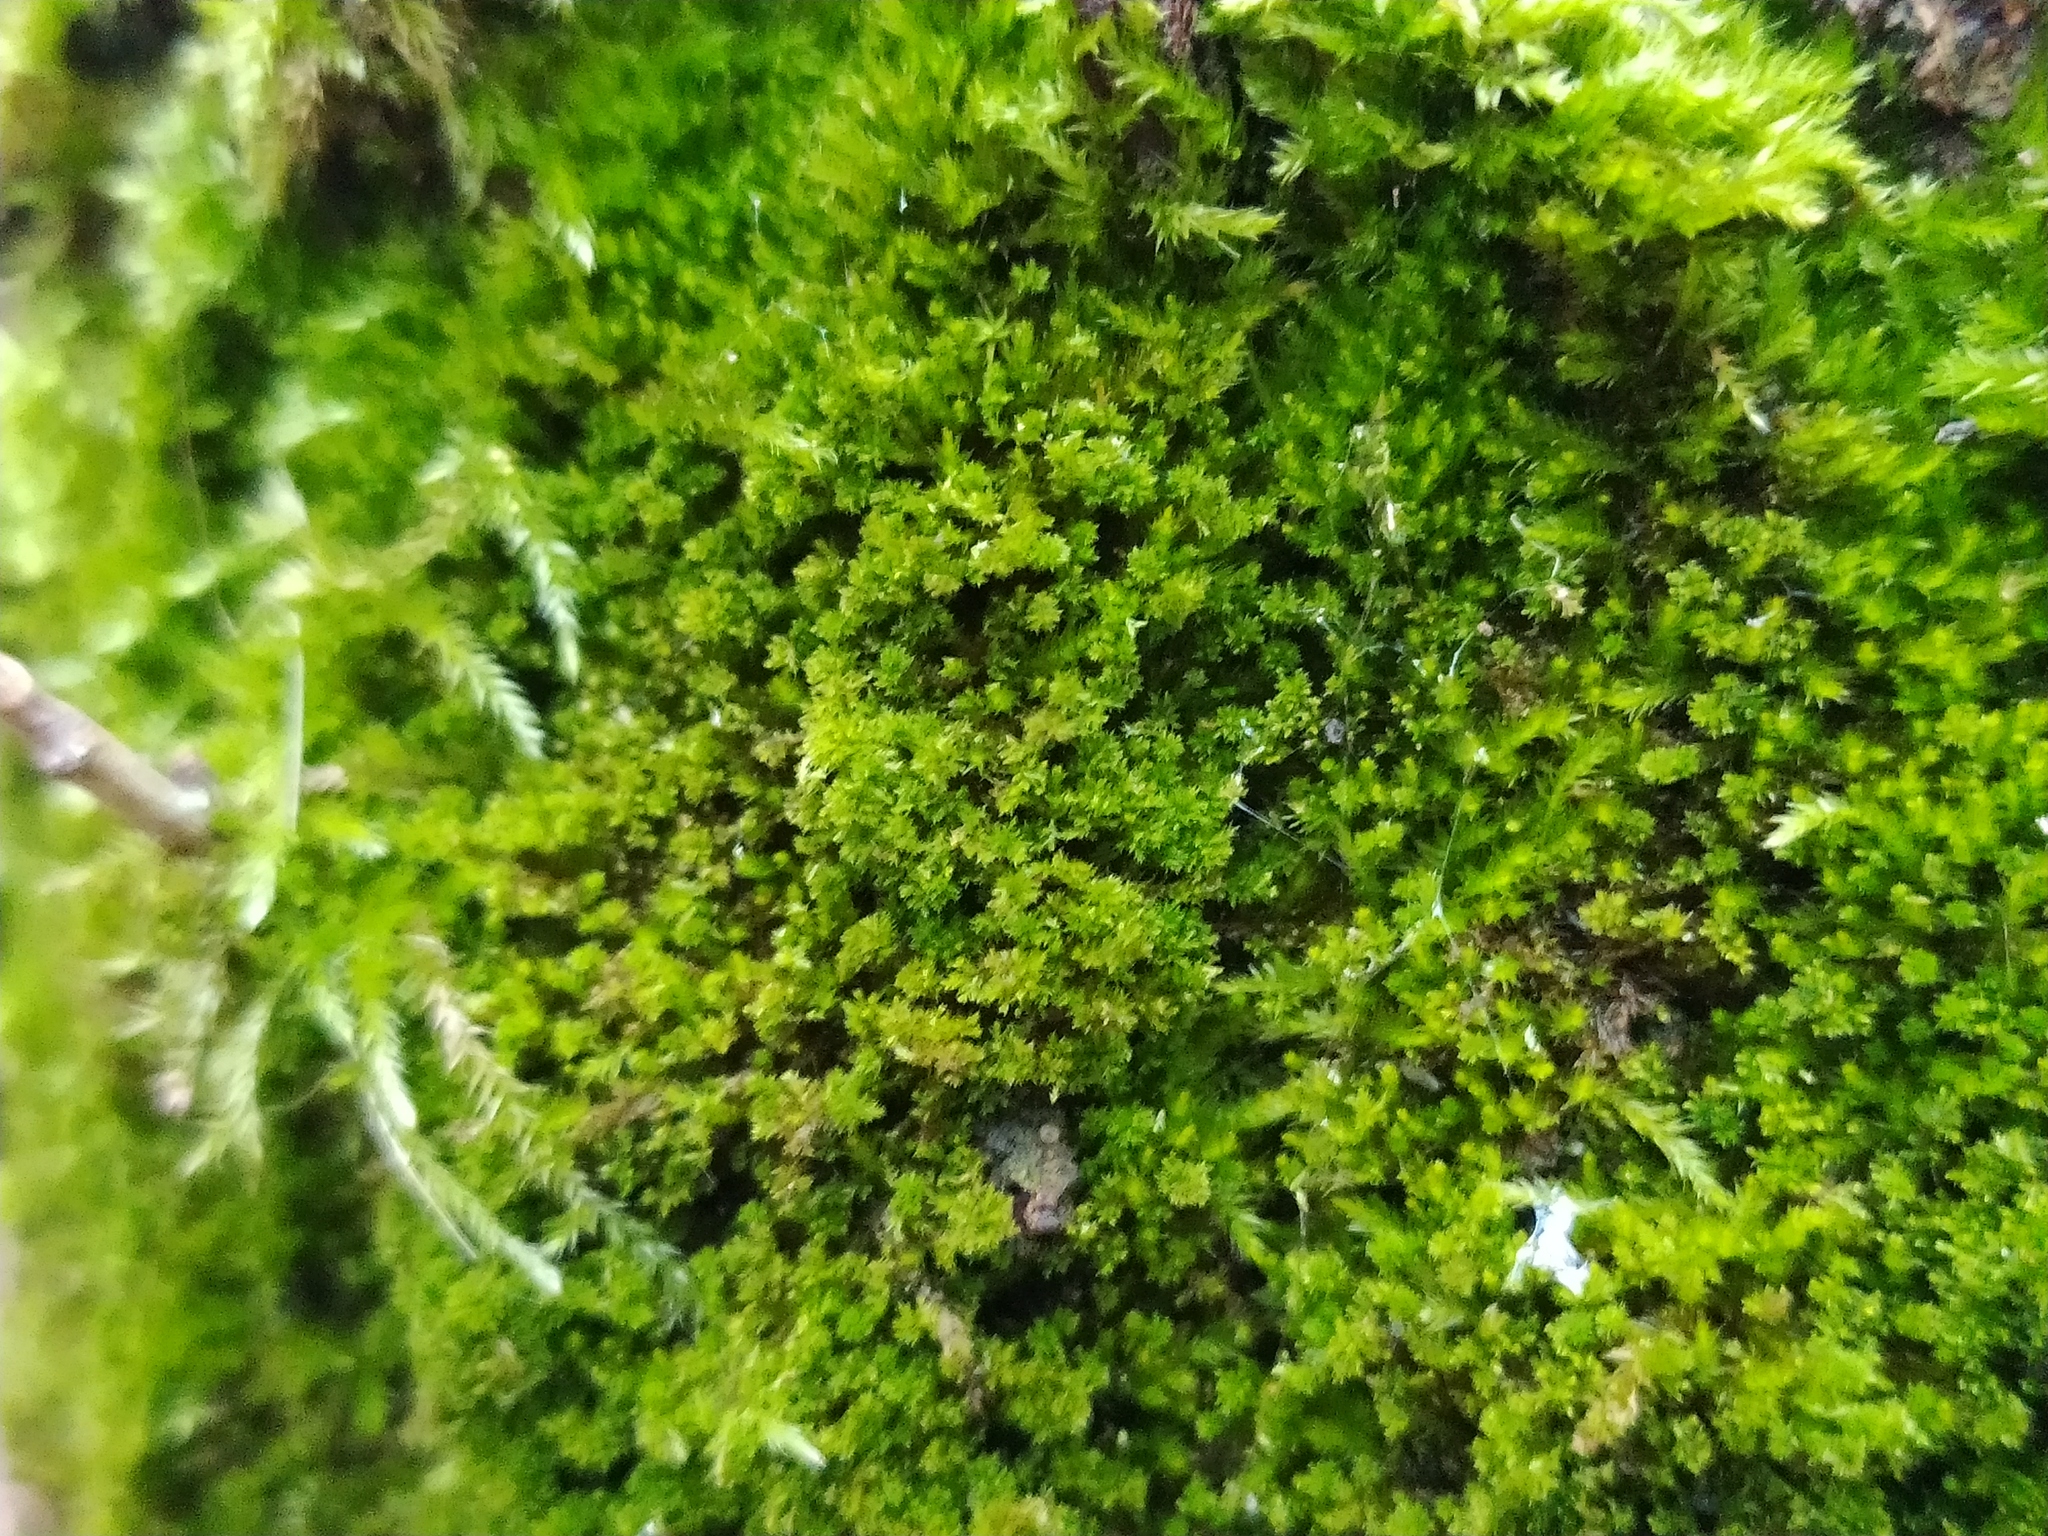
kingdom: Plantae
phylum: Bryophyta
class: Bryopsida
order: Hypnales
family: Pylaisiadelphaceae
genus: Platygyrium
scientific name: Platygyrium repens
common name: Flat-brocade moss
